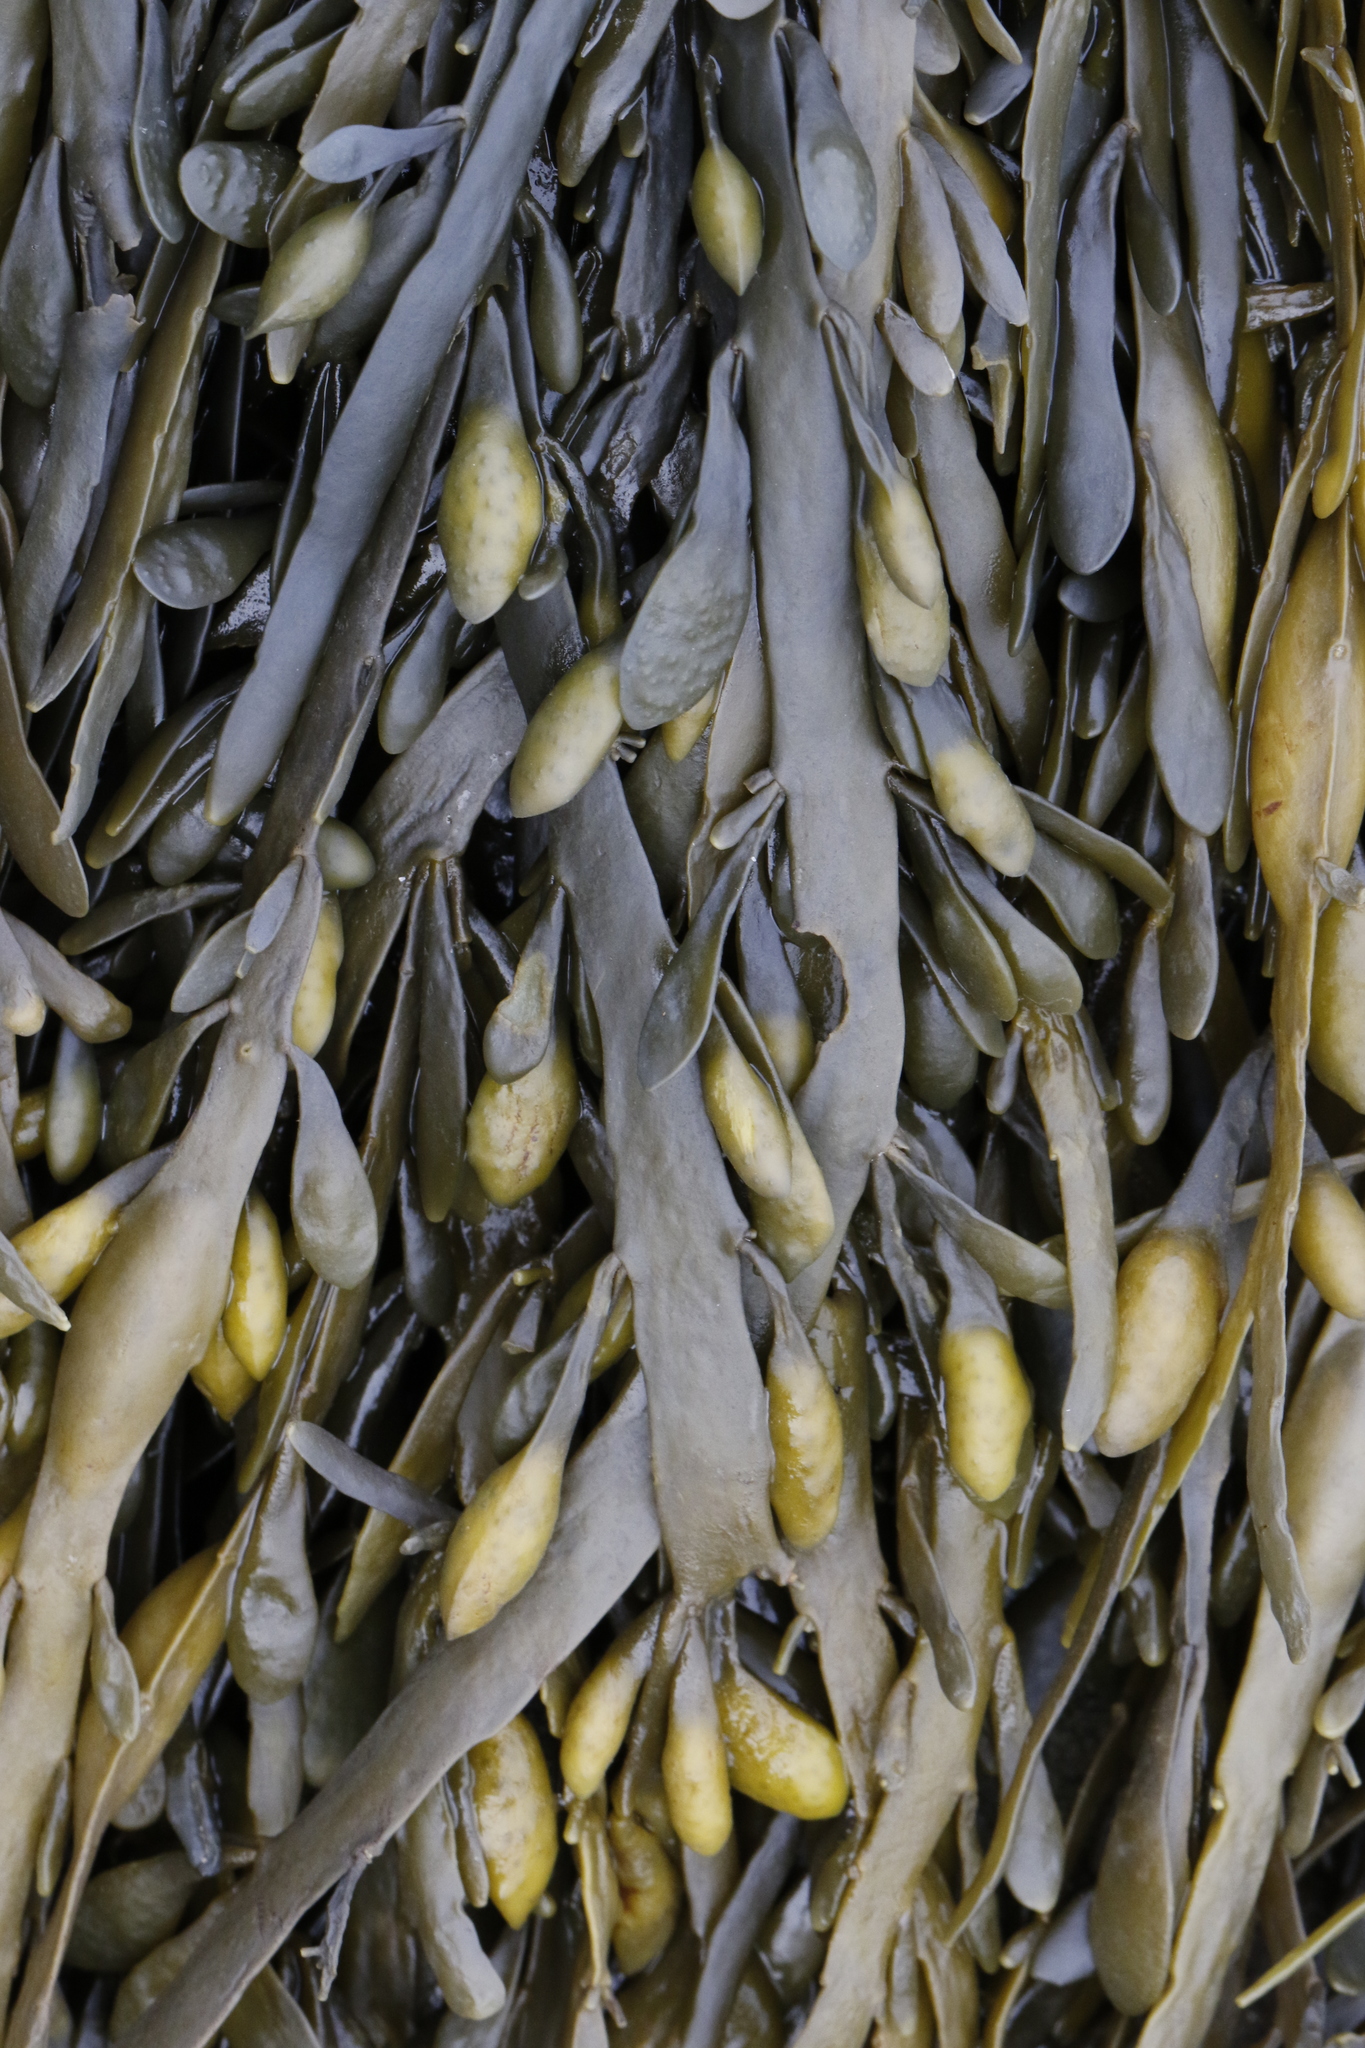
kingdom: Chromista
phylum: Ochrophyta
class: Phaeophyceae
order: Fucales
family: Fucaceae
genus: Ascophyllum
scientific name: Ascophyllum nodosum
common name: Knotted wrack
